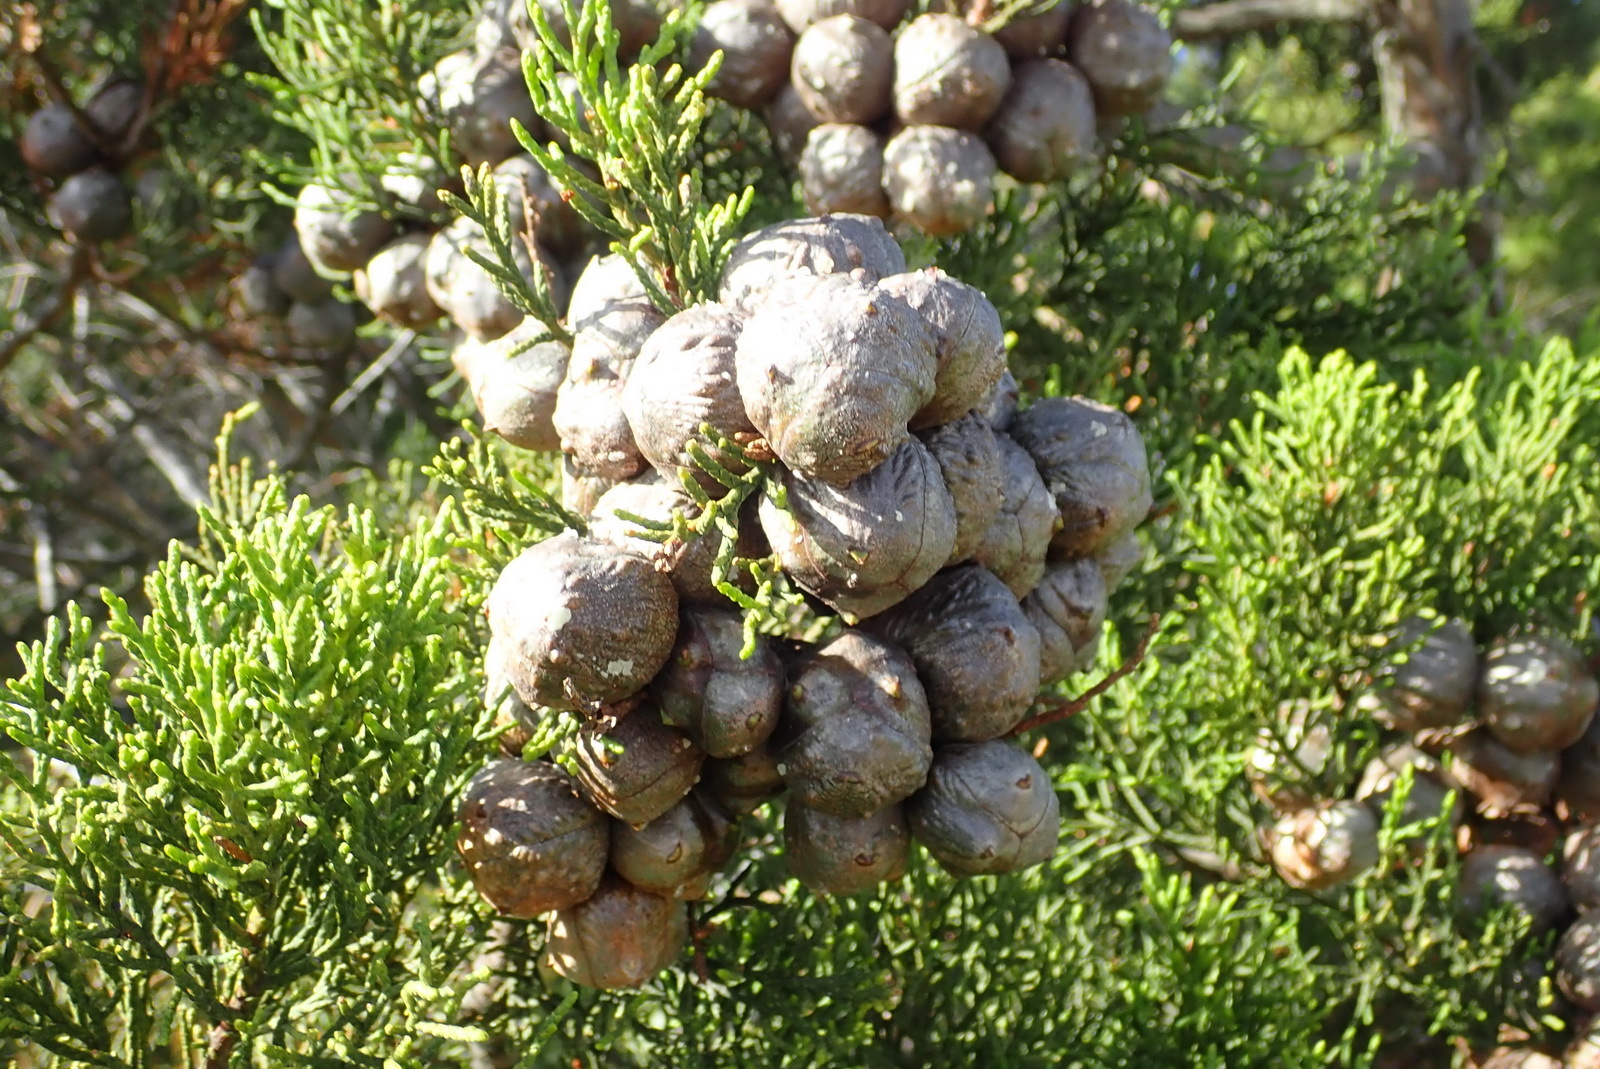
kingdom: Plantae
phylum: Tracheophyta
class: Pinopsida
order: Pinales
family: Cupressaceae
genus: Widdringtonia
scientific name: Widdringtonia nodiflora
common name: Cape cypress
